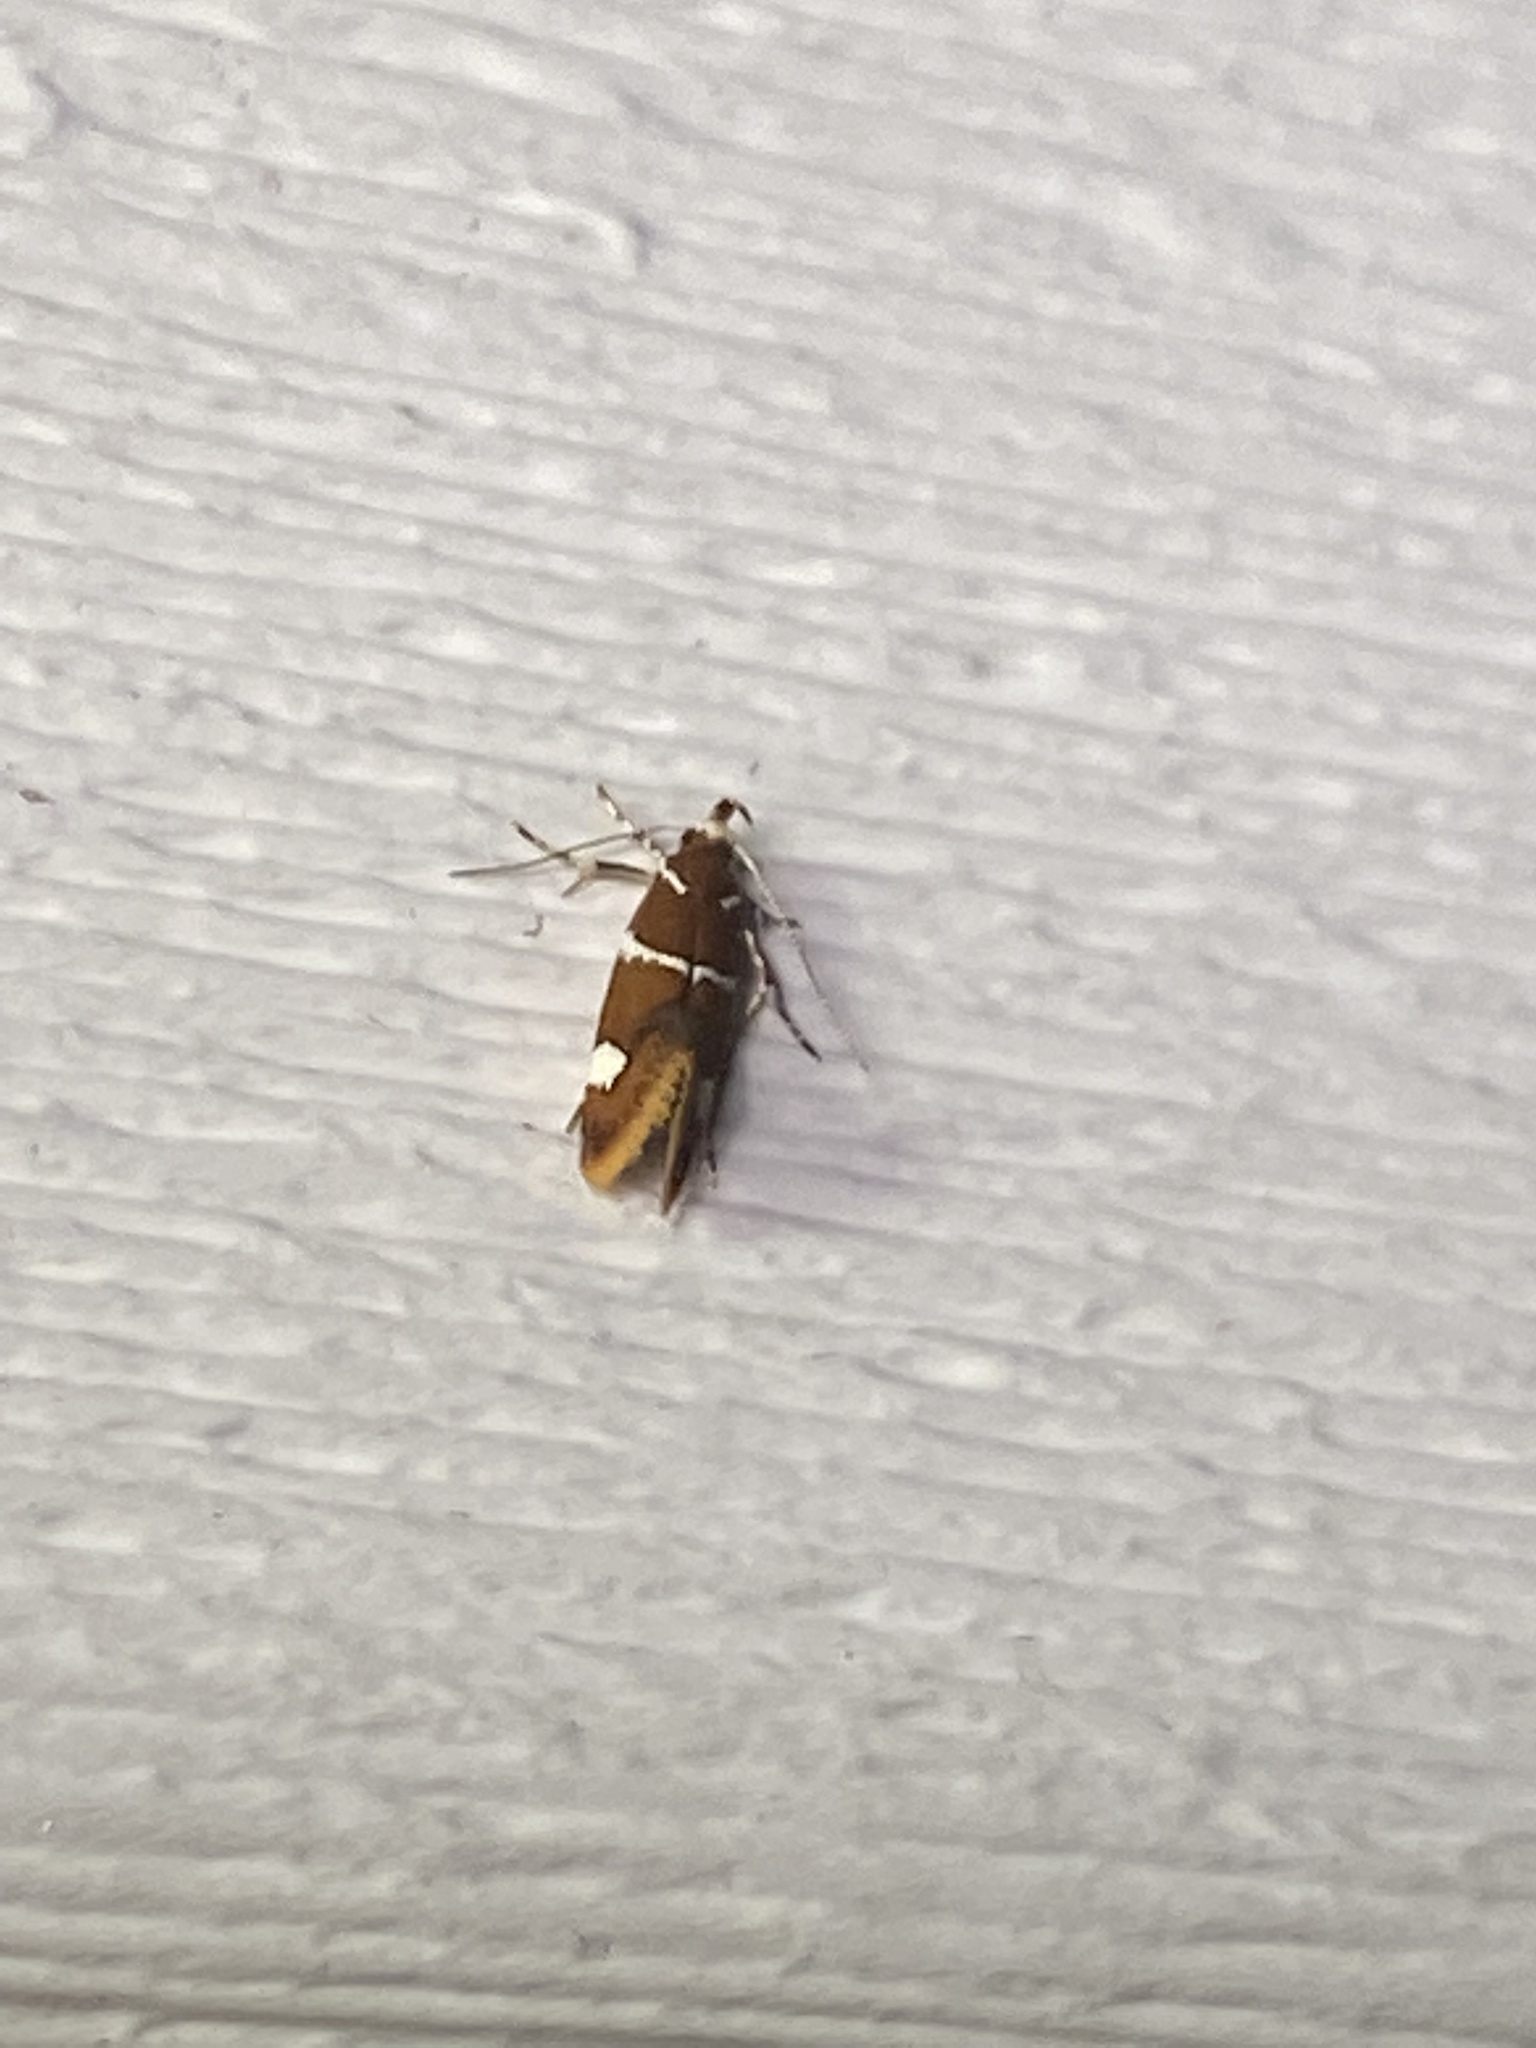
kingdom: Animalia
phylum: Arthropoda
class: Insecta
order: Lepidoptera
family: Oecophoridae
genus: Promalactis
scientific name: Promalactis suzukiella
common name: Moth
